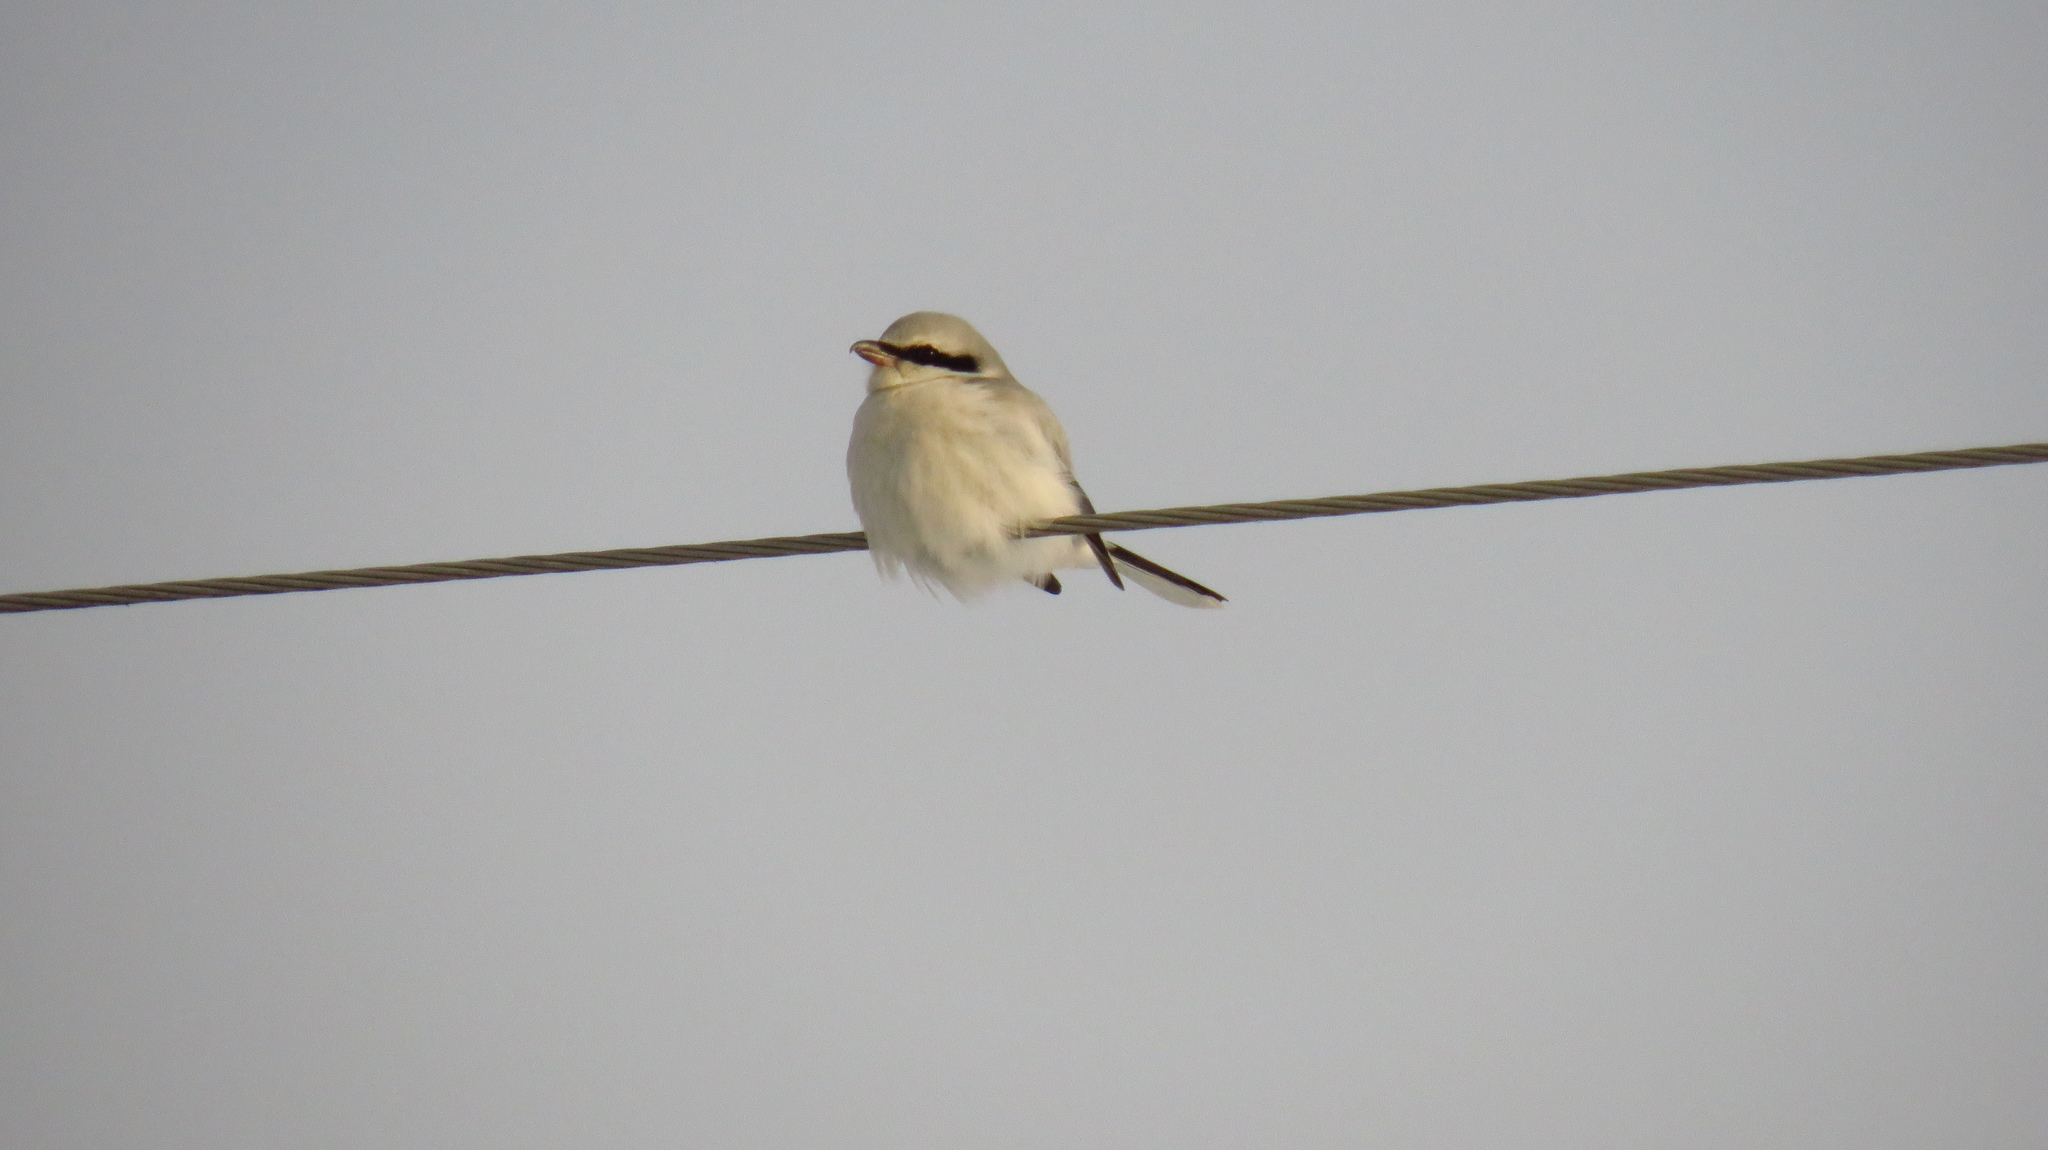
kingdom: Animalia
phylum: Chordata
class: Aves
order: Passeriformes
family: Laniidae
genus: Lanius
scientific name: Lanius excubitor
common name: Great grey shrike
